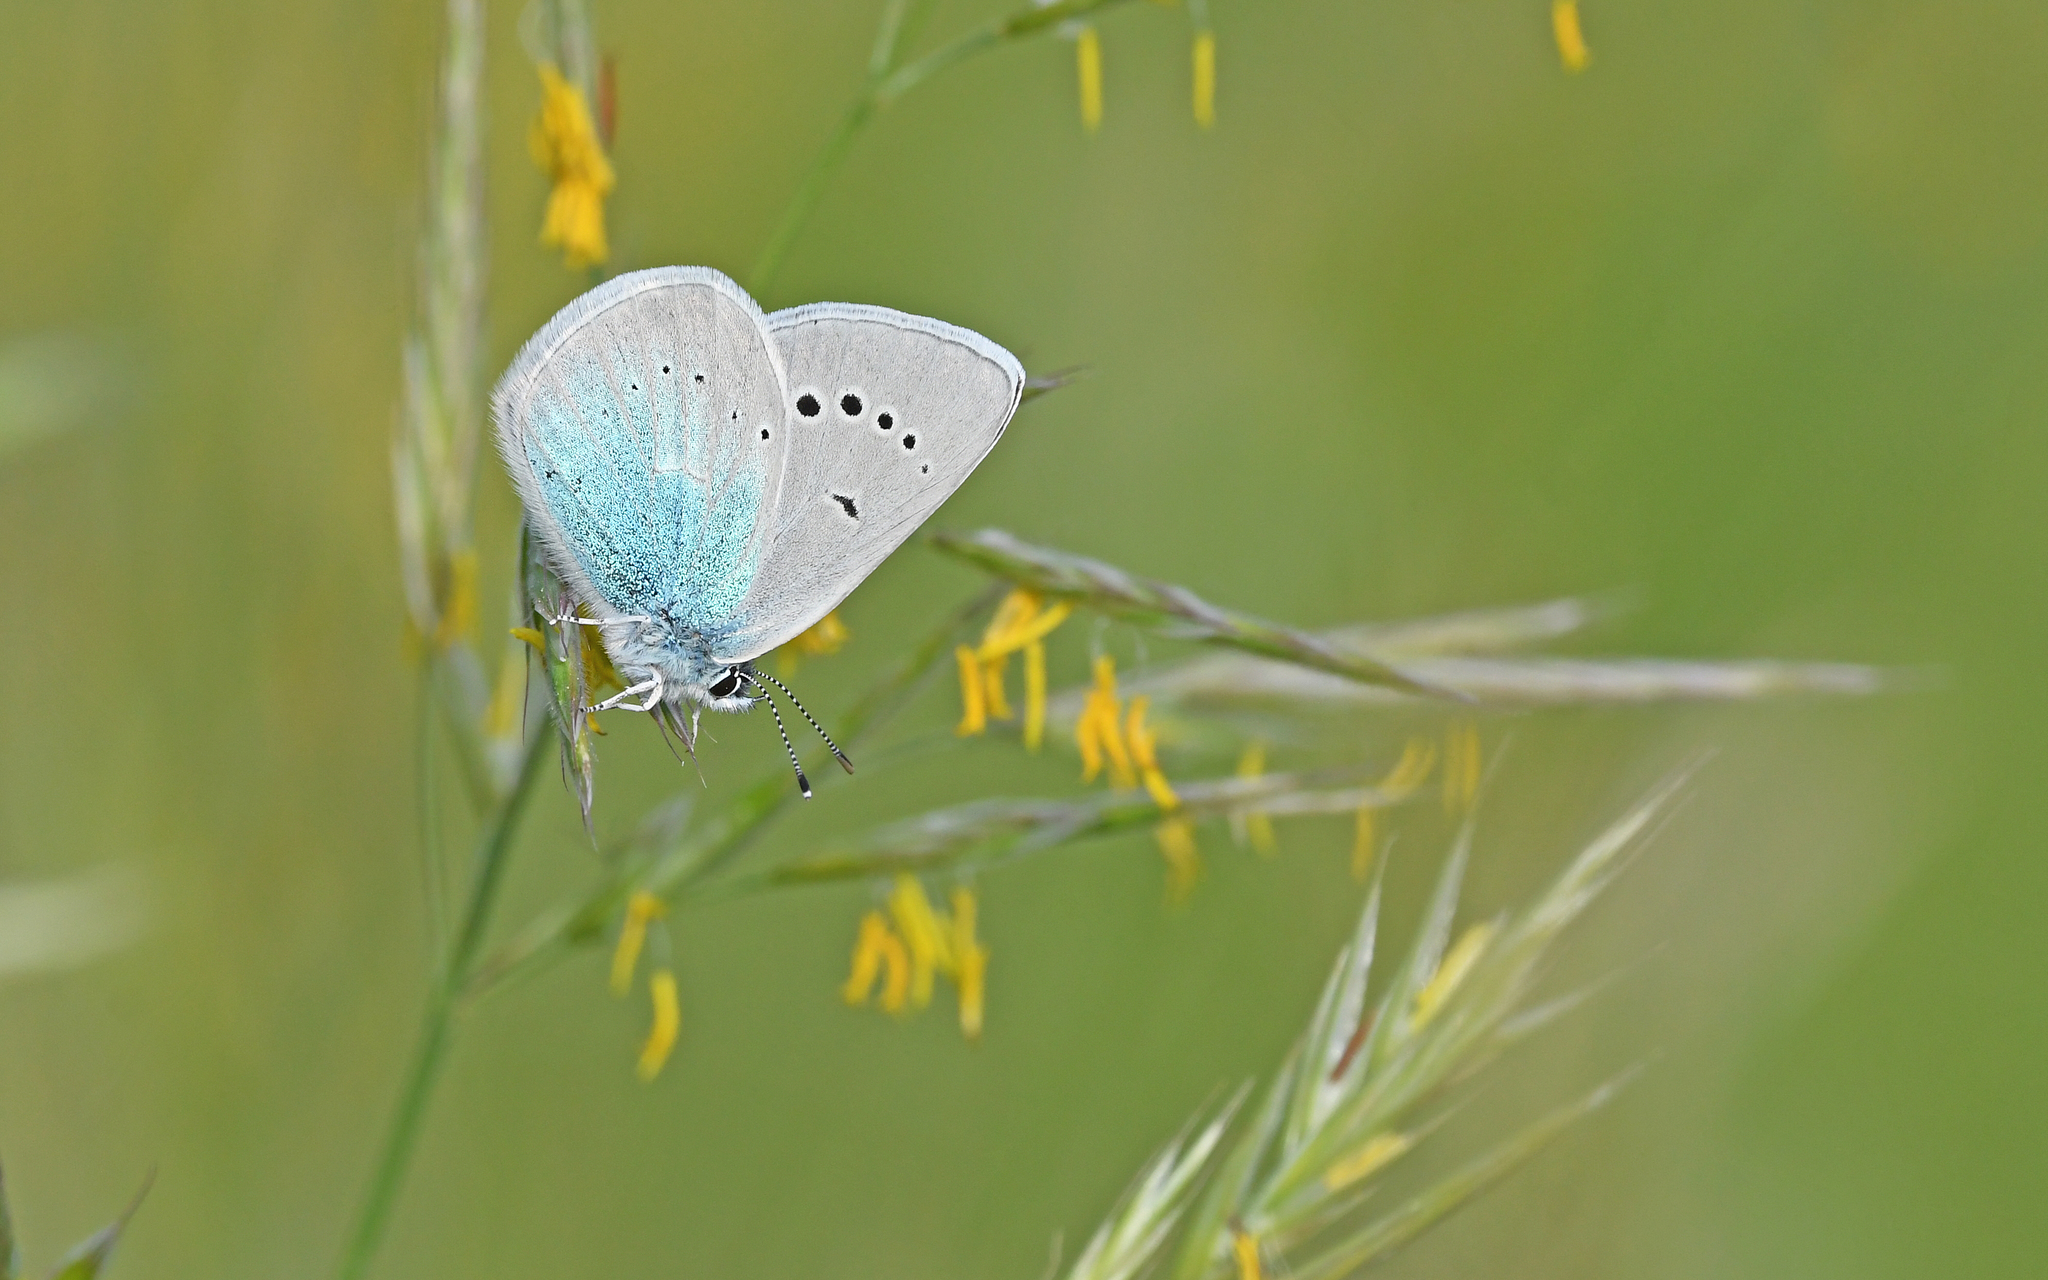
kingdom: Animalia
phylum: Arthropoda
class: Insecta
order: Lepidoptera
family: Lycaenidae
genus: Glaucopsyche
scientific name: Glaucopsyche alexis
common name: Green-underside blue
